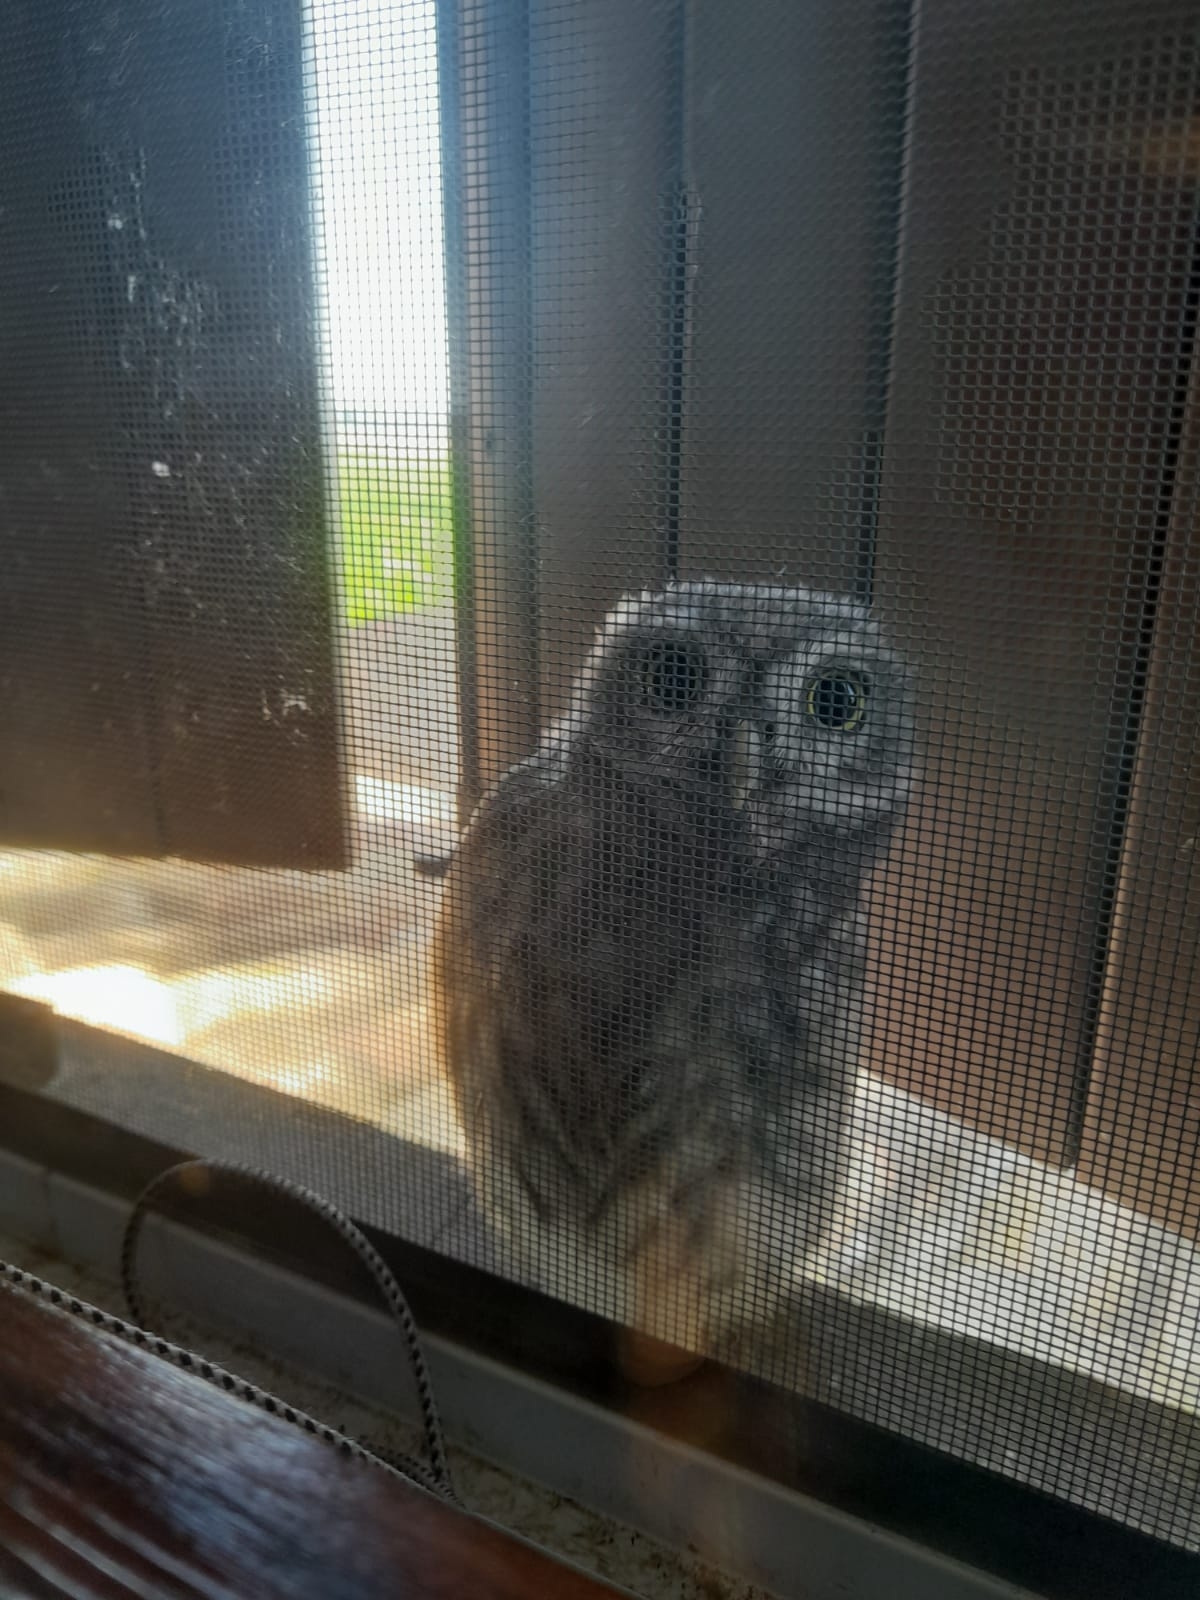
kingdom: Animalia
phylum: Chordata
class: Aves
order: Strigiformes
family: Strigidae
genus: Athene
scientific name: Athene noctua
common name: Little owl
